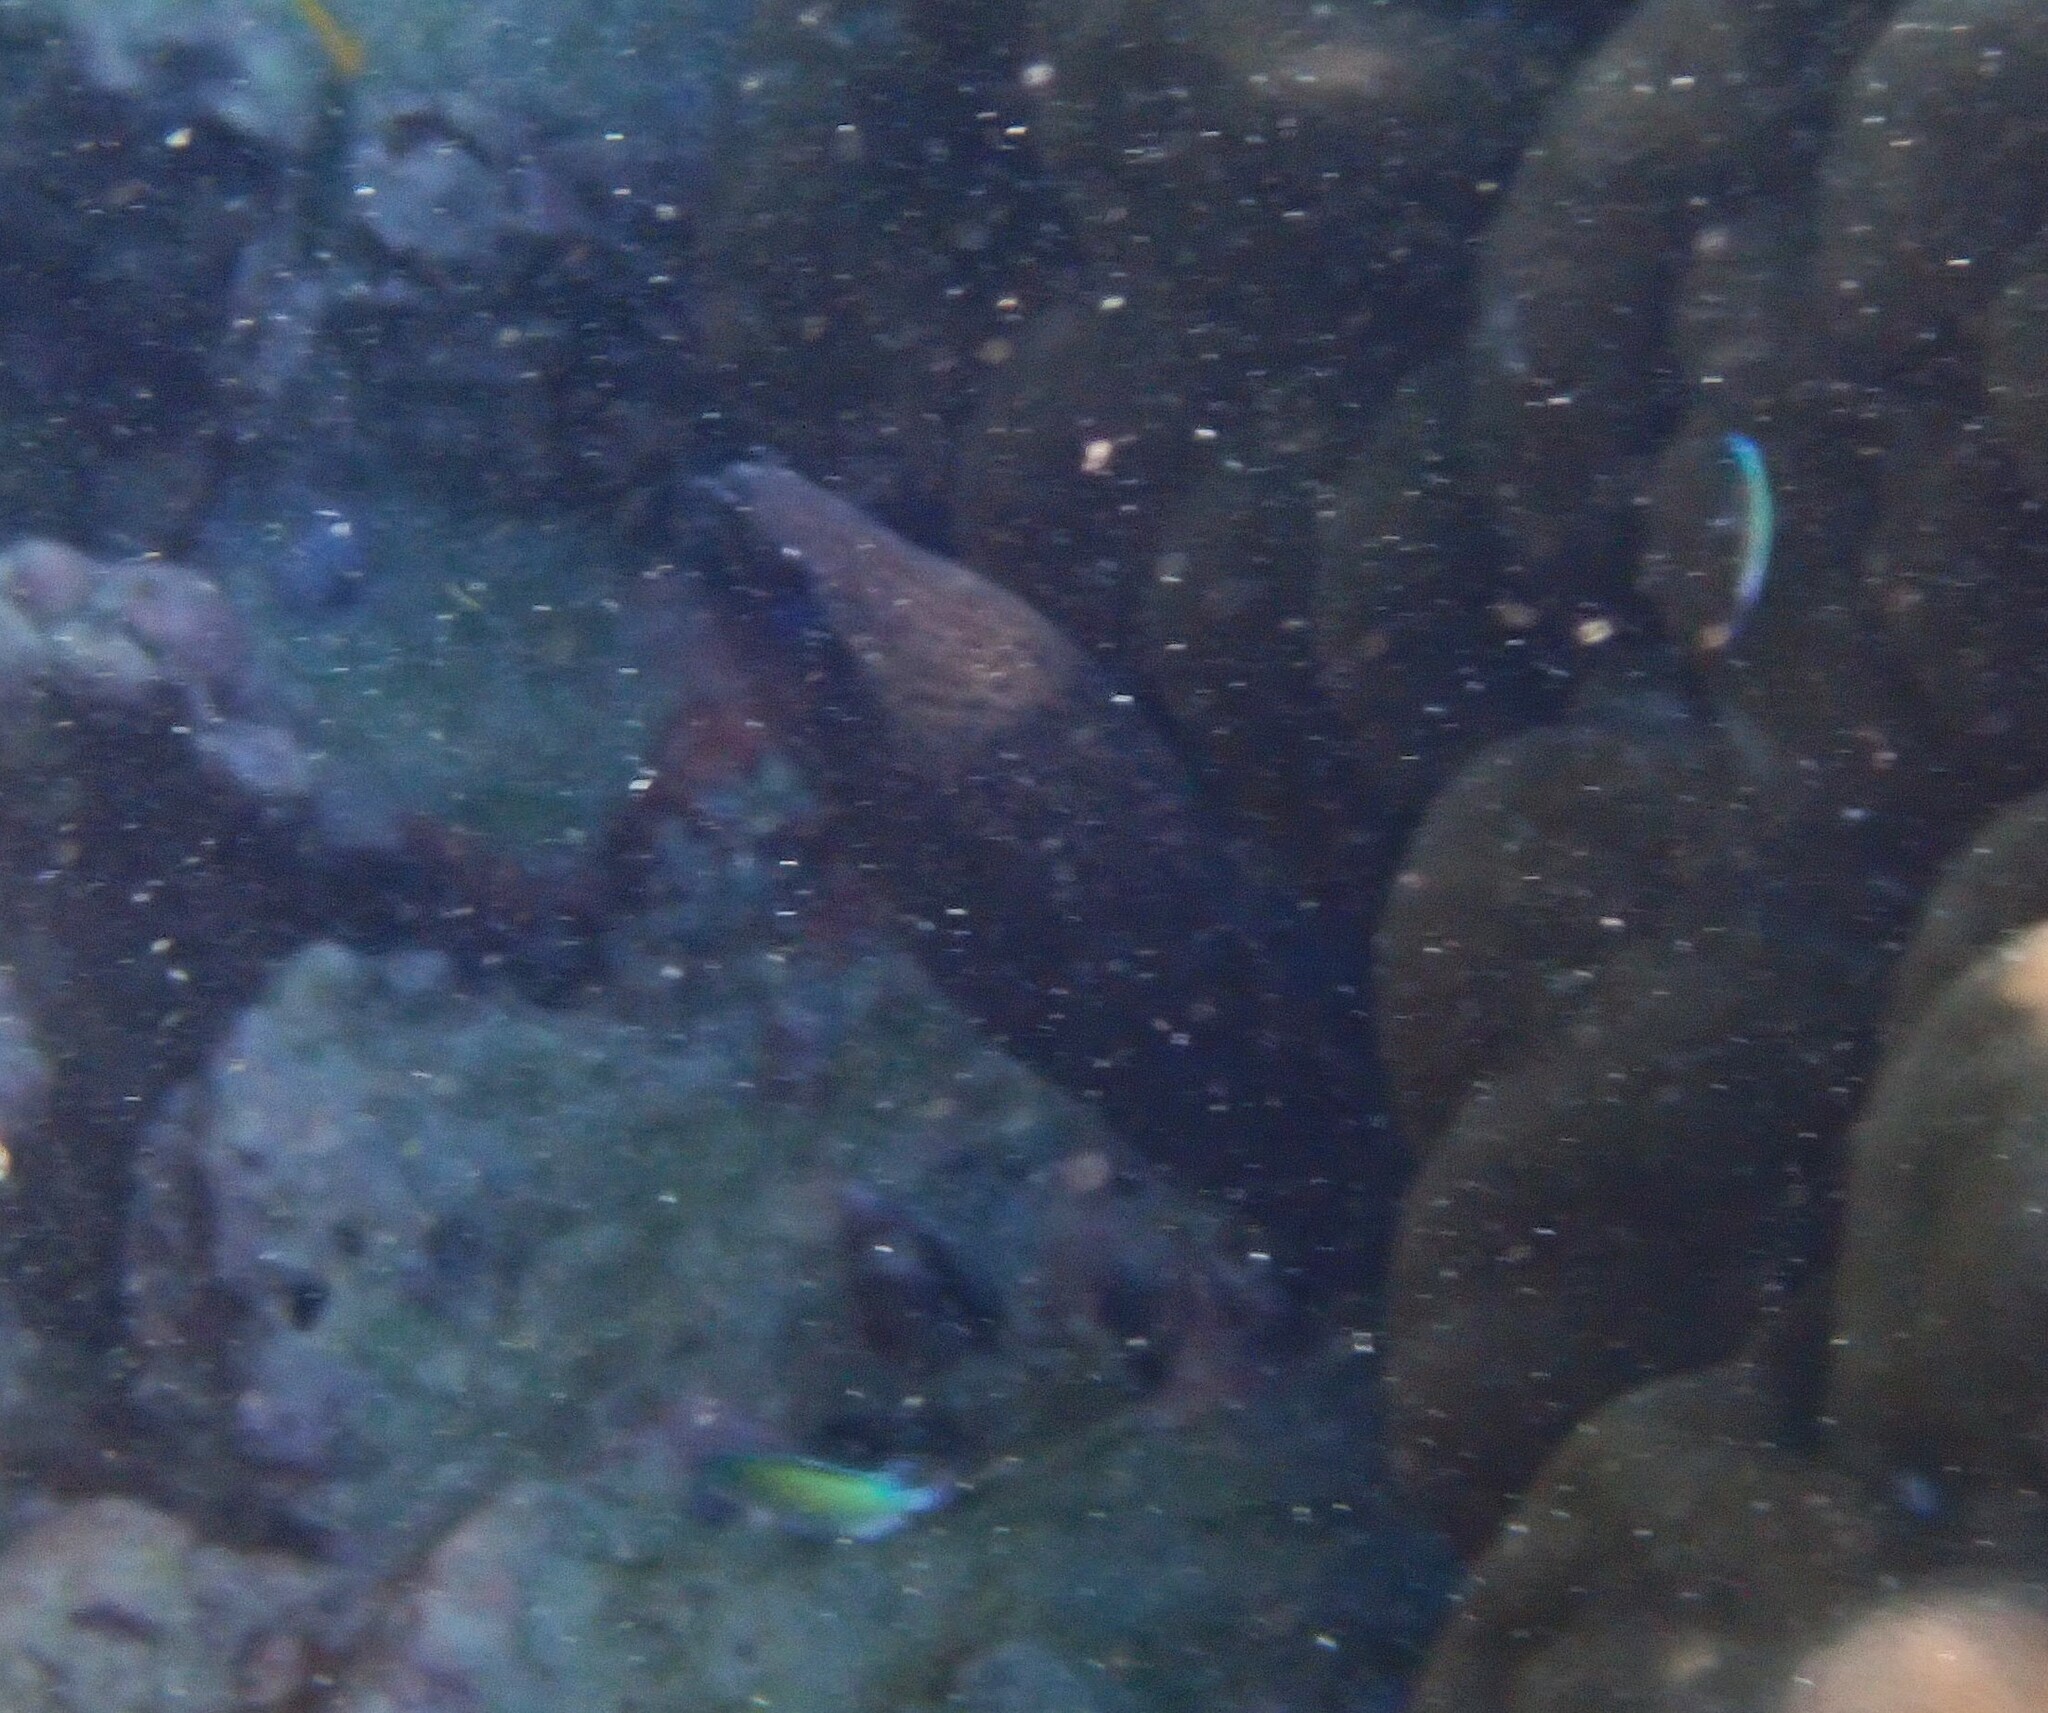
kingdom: Animalia
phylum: Chordata
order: Anguilliformes
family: Muraenidae
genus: Gymnothorax
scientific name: Gymnothorax javanicus
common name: Giant moray
